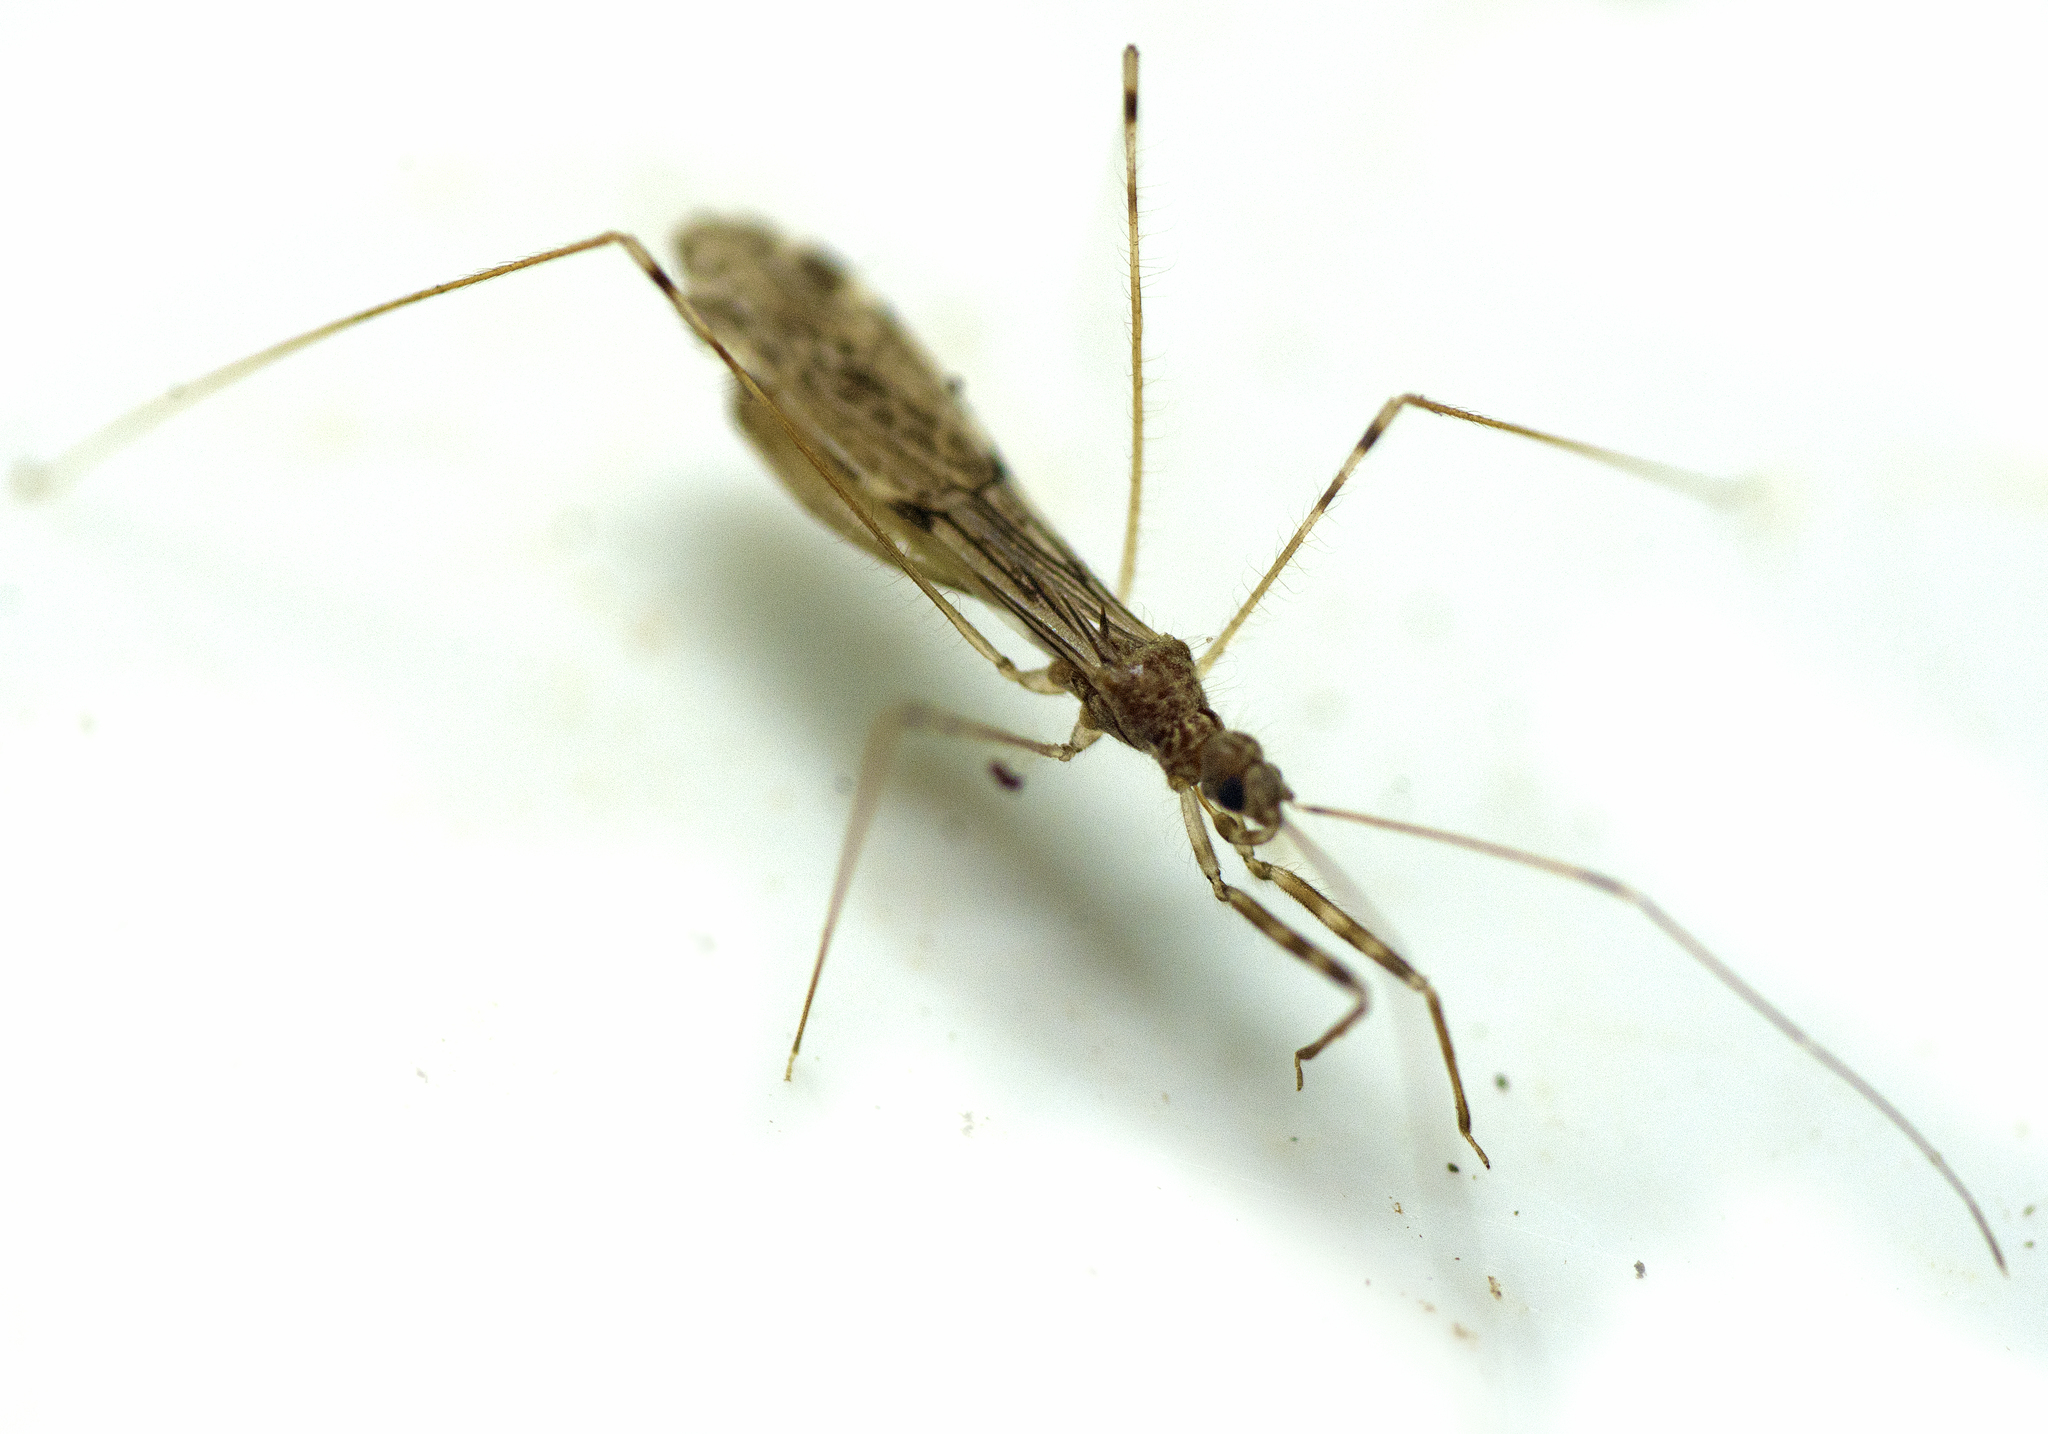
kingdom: Animalia
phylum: Arthropoda
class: Insecta
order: Hemiptera
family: Reduviidae
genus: Emesopsis
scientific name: Emesopsis infenestra
